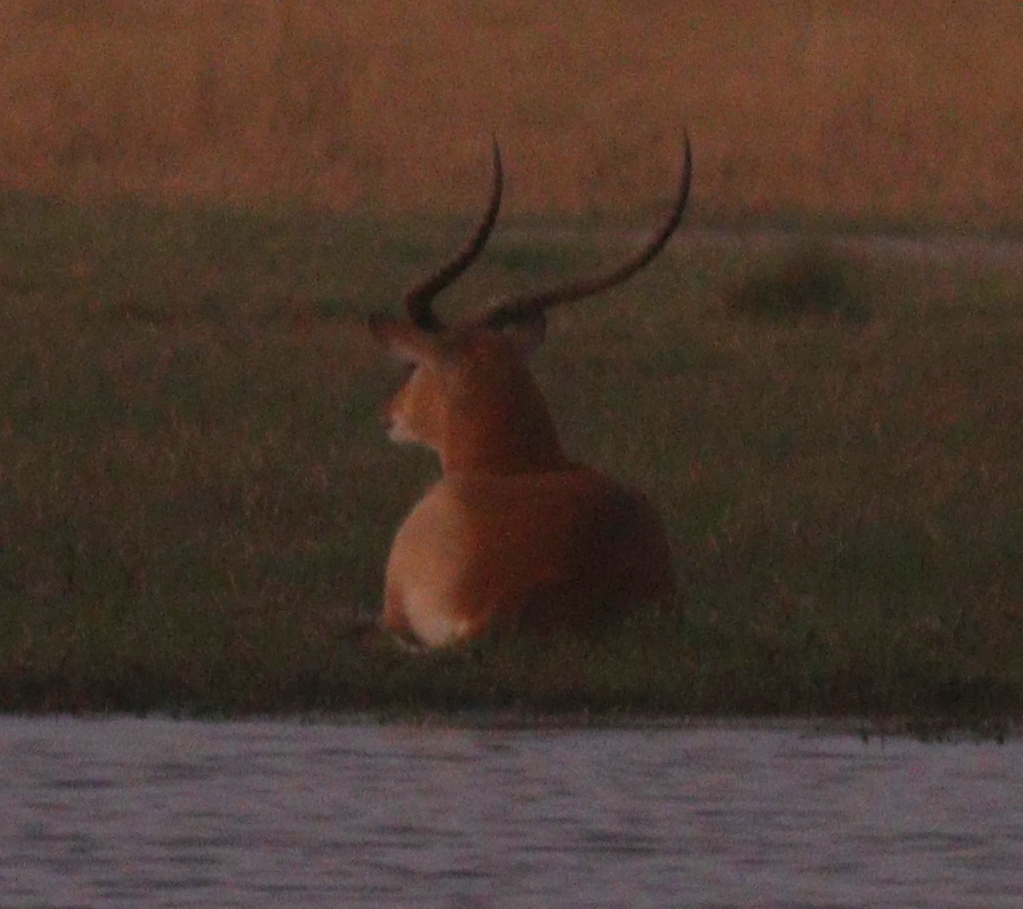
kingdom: Animalia
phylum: Chordata
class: Mammalia
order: Artiodactyla
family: Bovidae
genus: Kobus
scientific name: Kobus leche
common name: Lechwe
